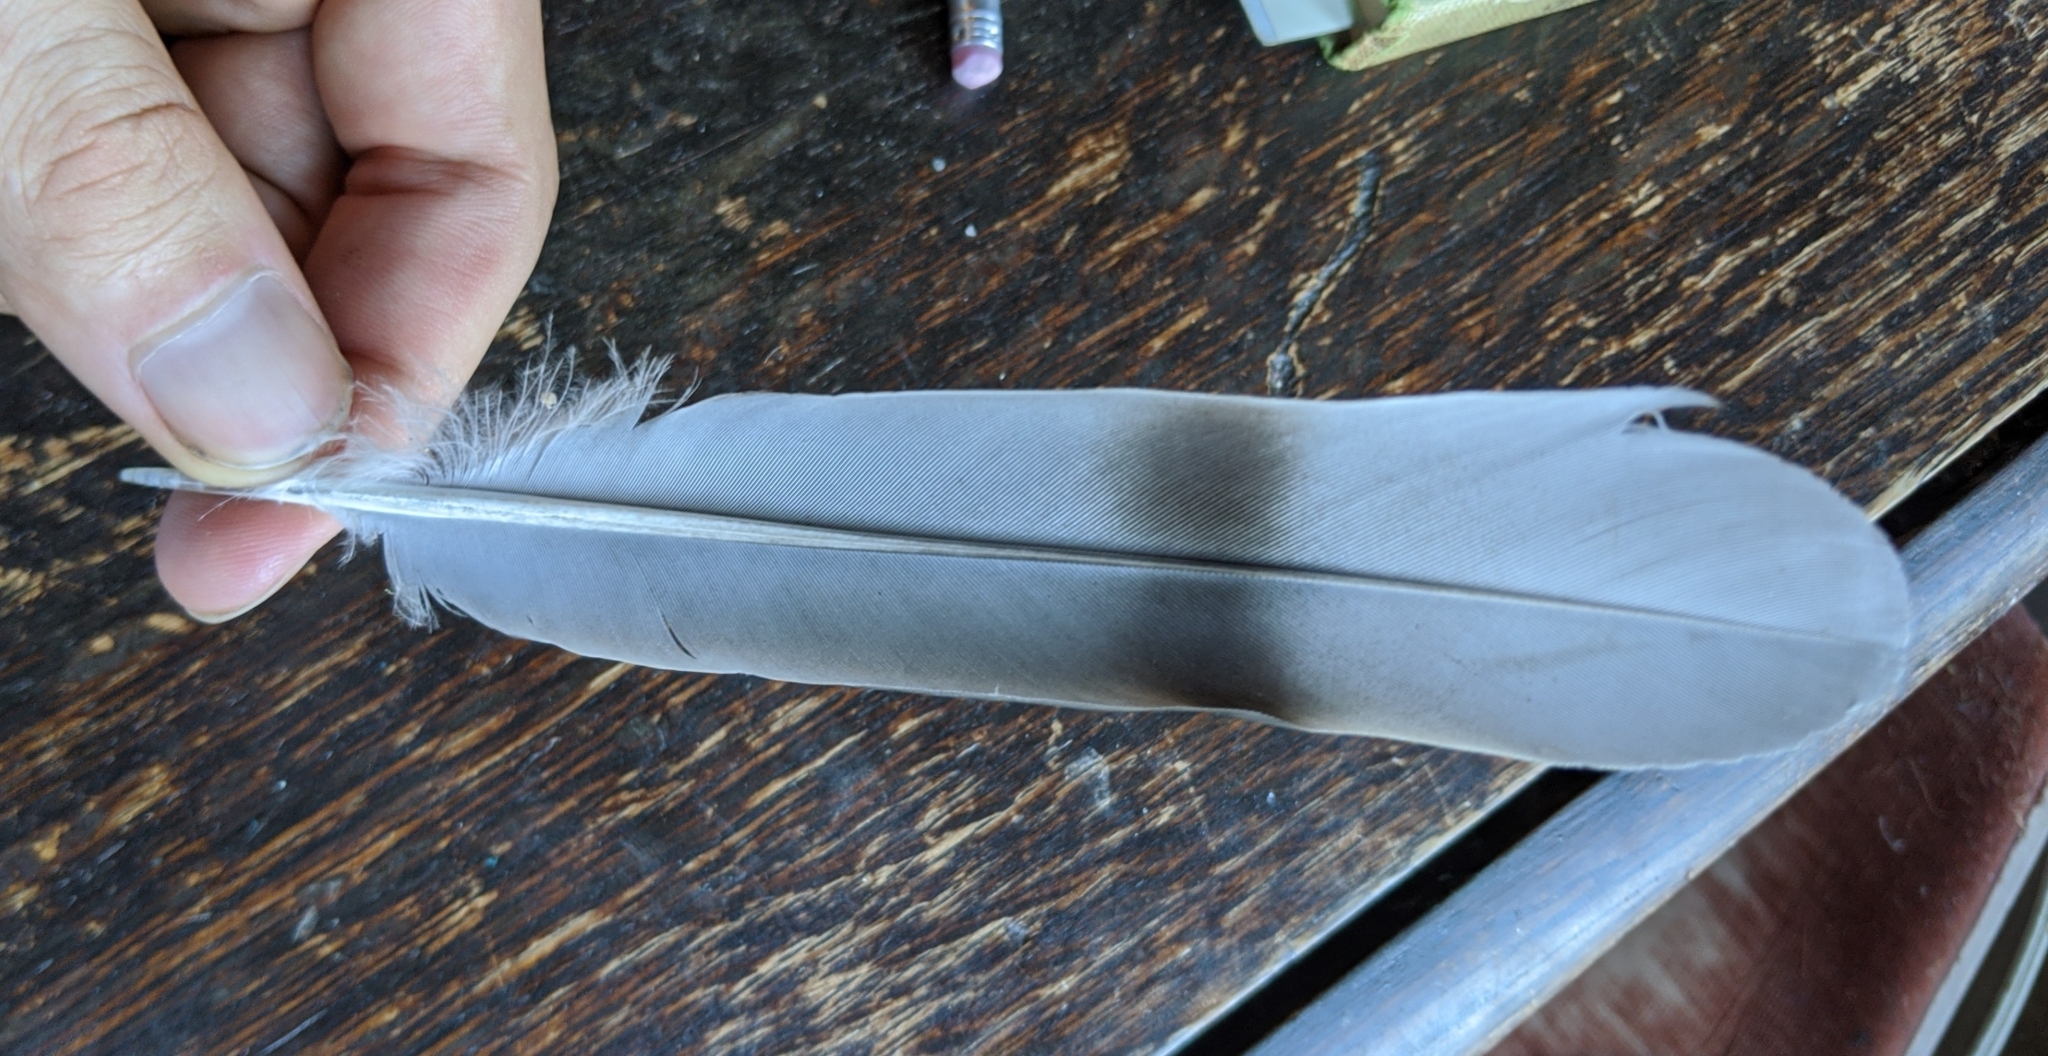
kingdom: Animalia
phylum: Chordata
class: Aves
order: Columbiformes
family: Columbidae
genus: Patagioenas
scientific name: Patagioenas fasciata
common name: Band-tailed pigeon
